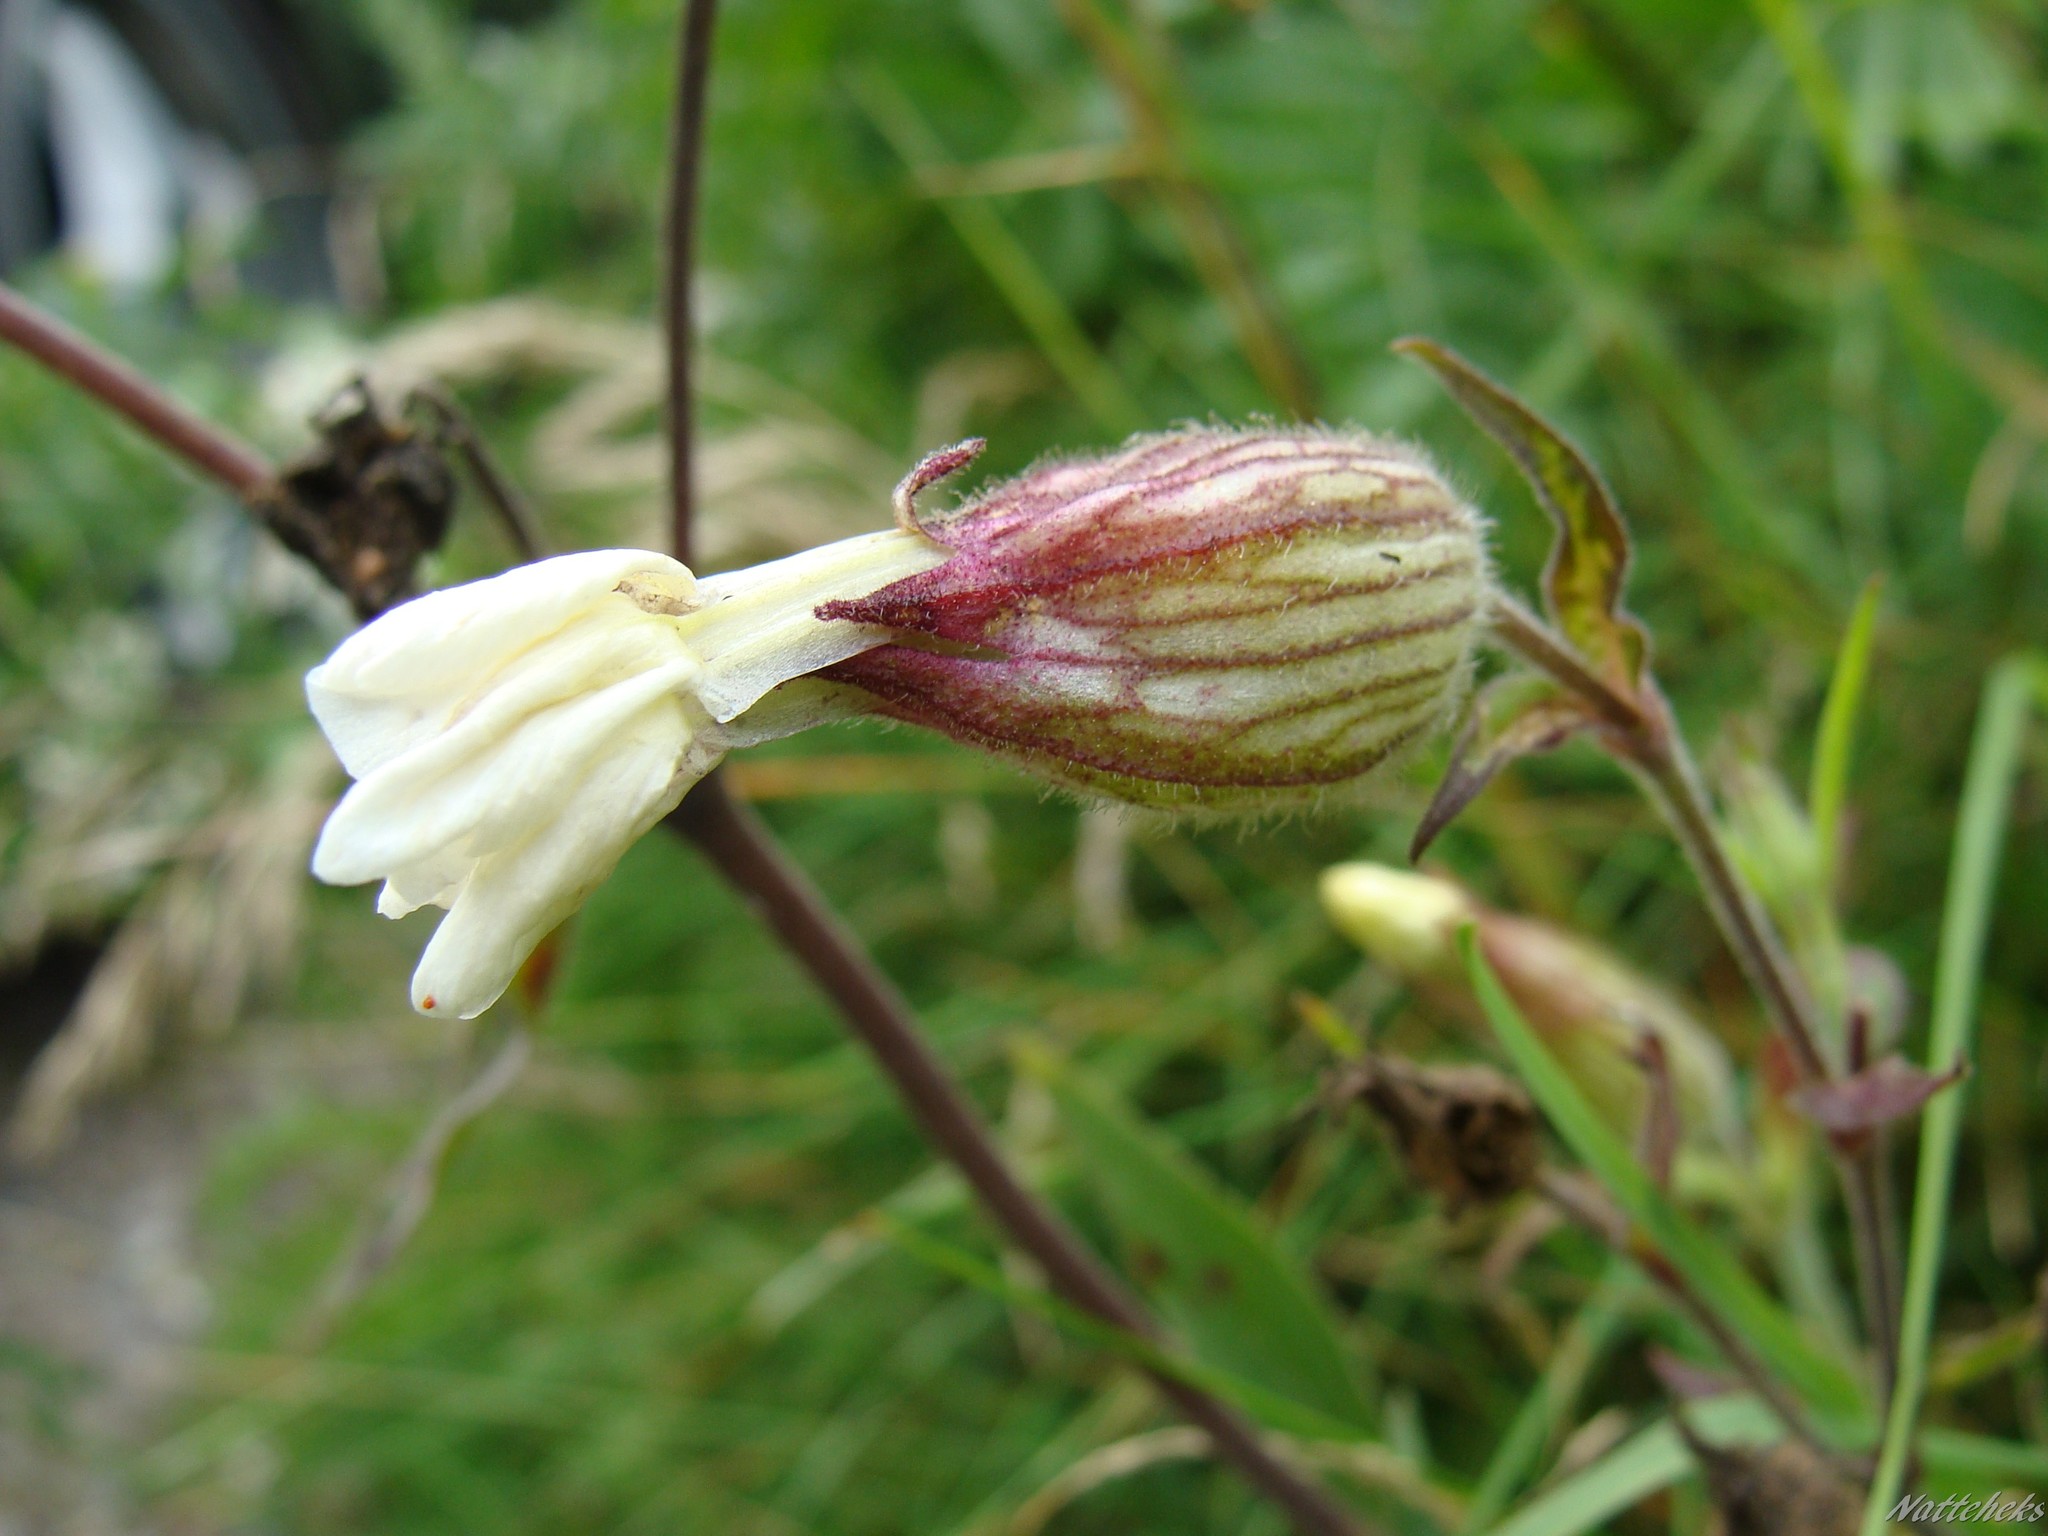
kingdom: Plantae
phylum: Tracheophyta
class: Magnoliopsida
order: Caryophyllales
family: Caryophyllaceae
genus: Silene
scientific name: Silene latifolia
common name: White campion
